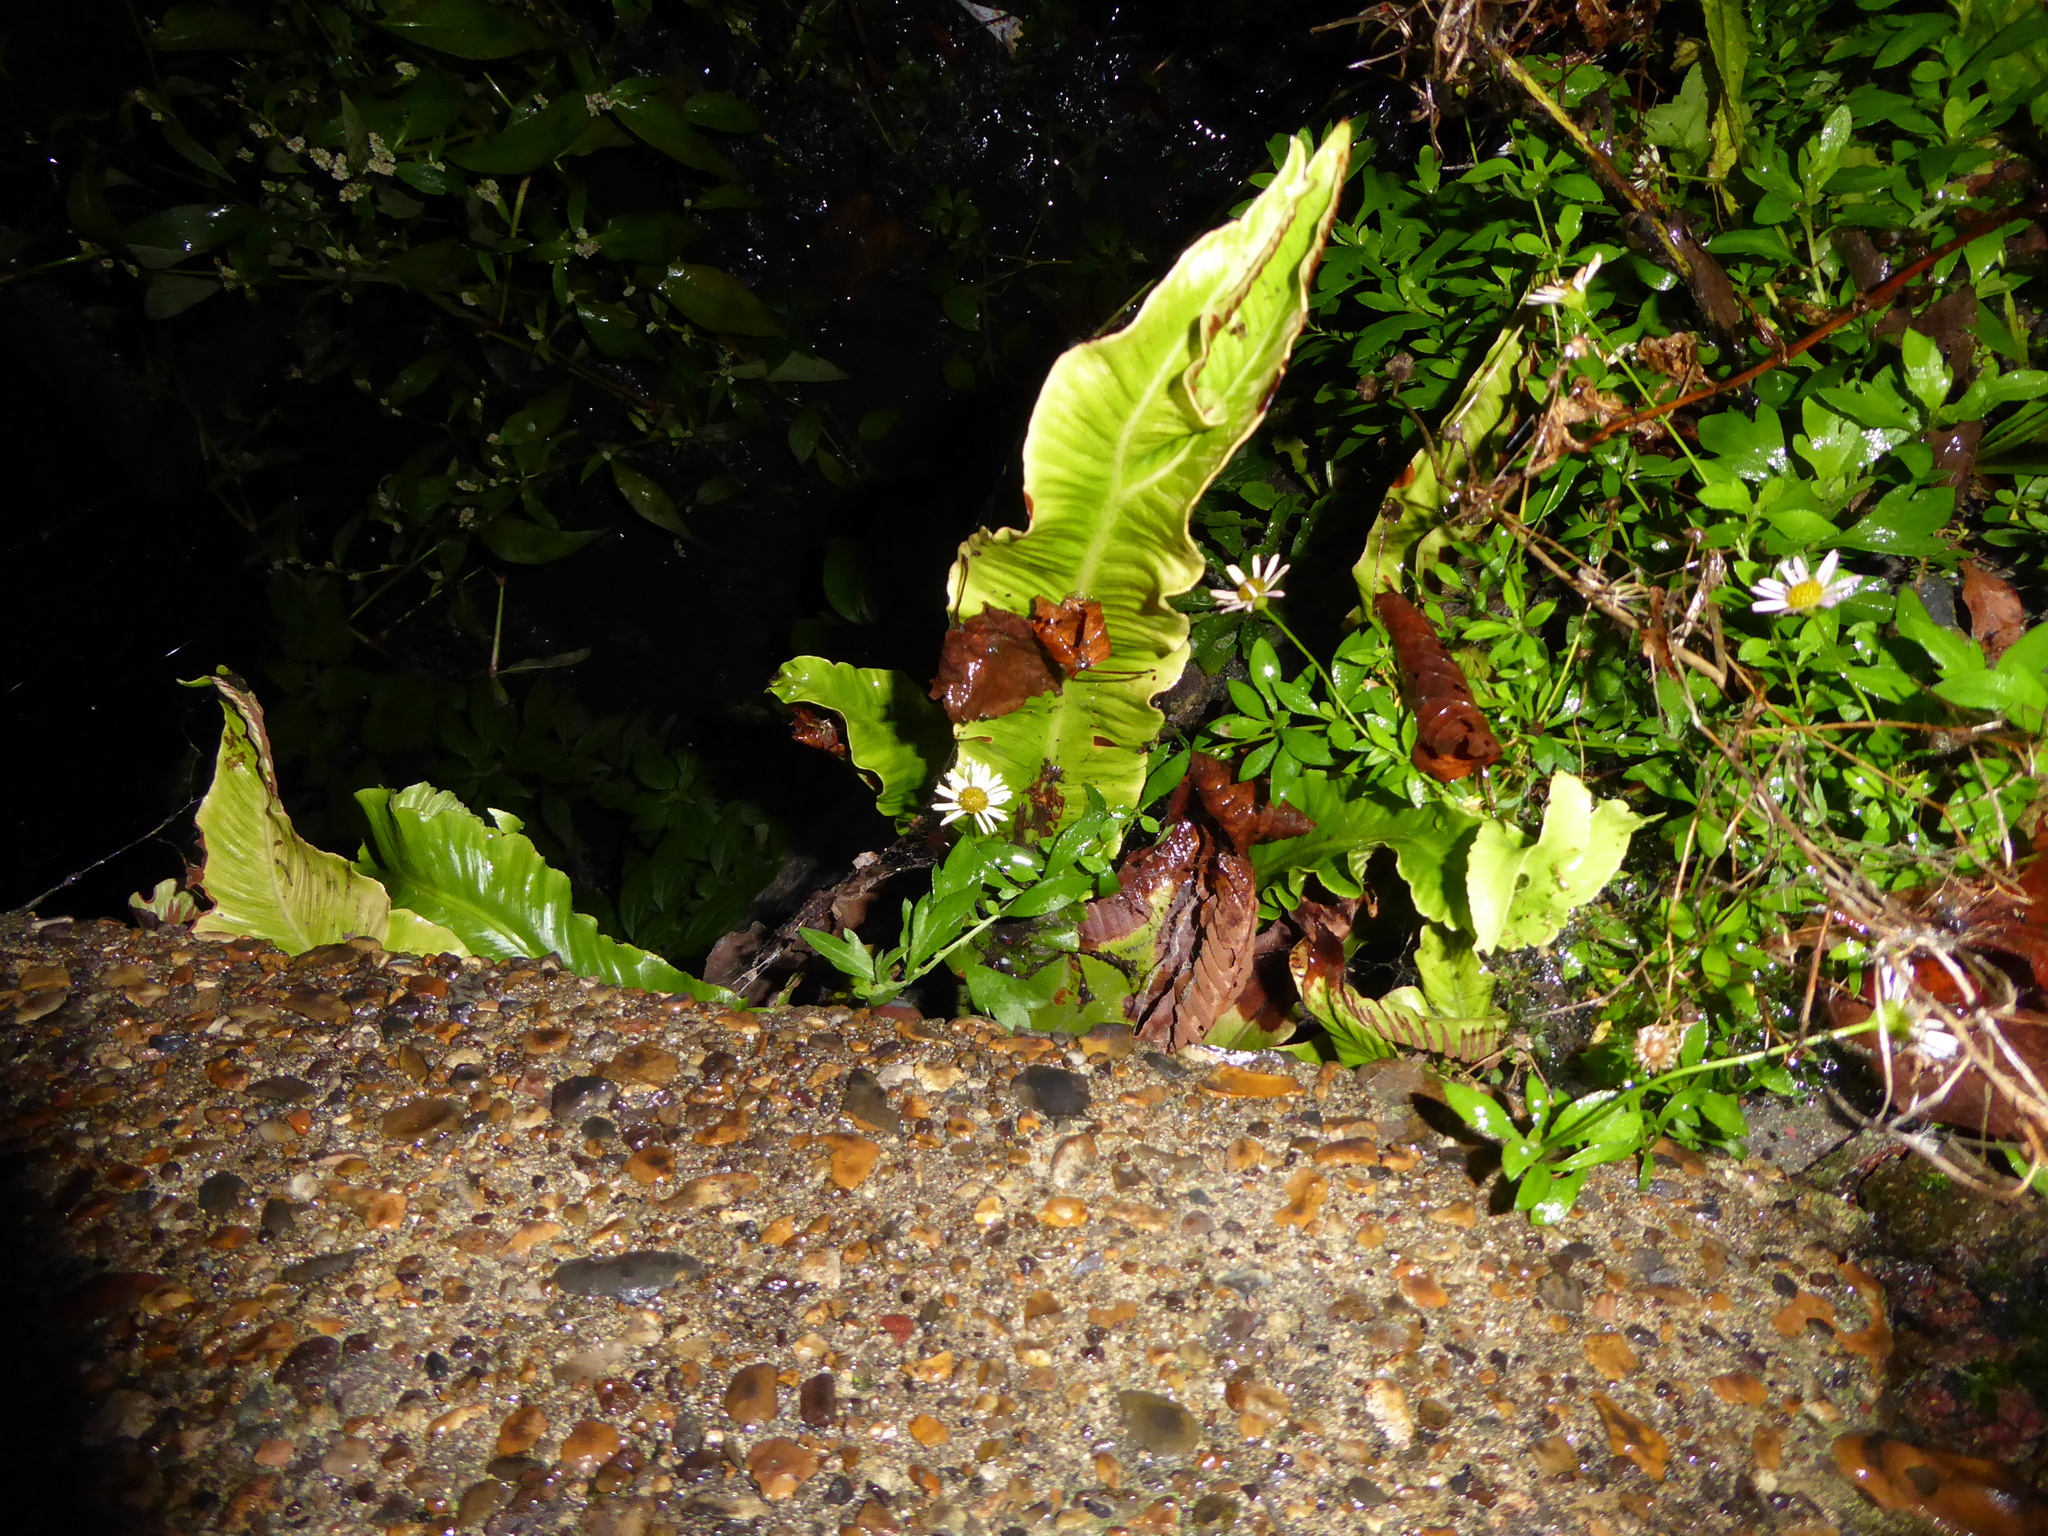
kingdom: Plantae
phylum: Tracheophyta
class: Polypodiopsida
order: Polypodiales
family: Aspleniaceae
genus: Asplenium
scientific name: Asplenium scolopendrium
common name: Hart's-tongue fern
